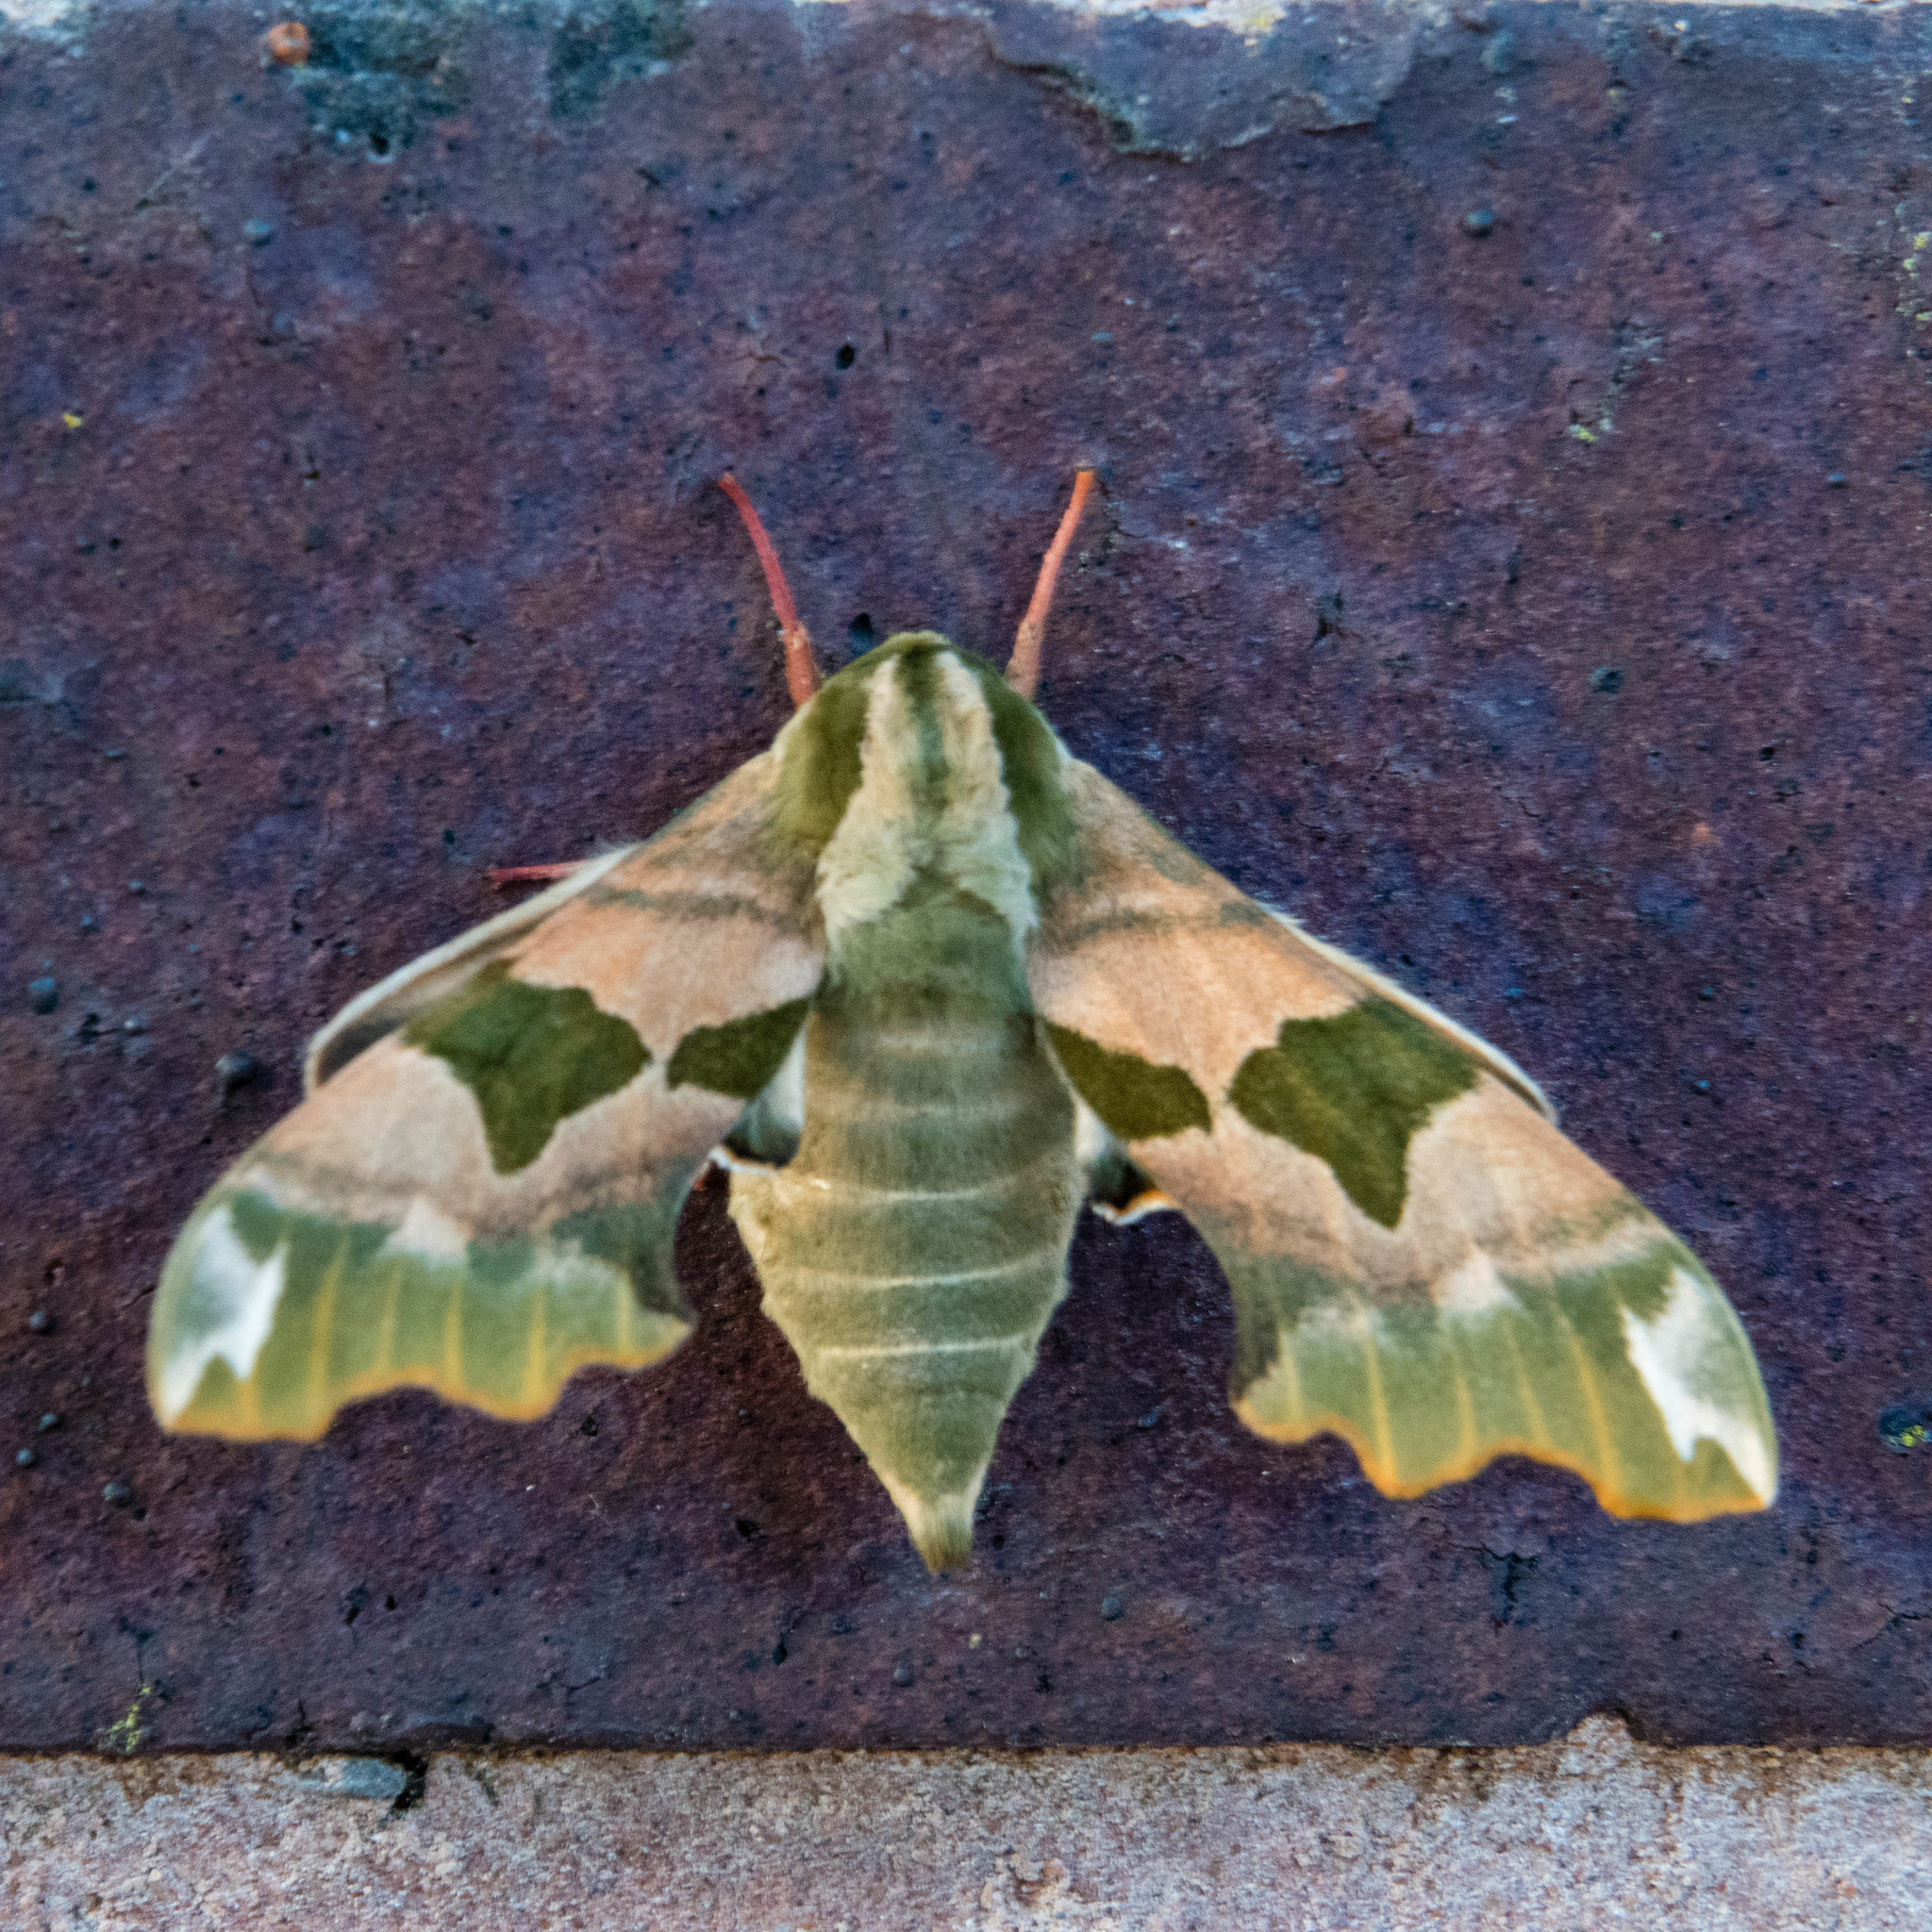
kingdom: Animalia
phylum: Arthropoda
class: Insecta
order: Lepidoptera
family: Sphingidae
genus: Mimas
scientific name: Mimas tiliae
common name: Lime hawk-moth
